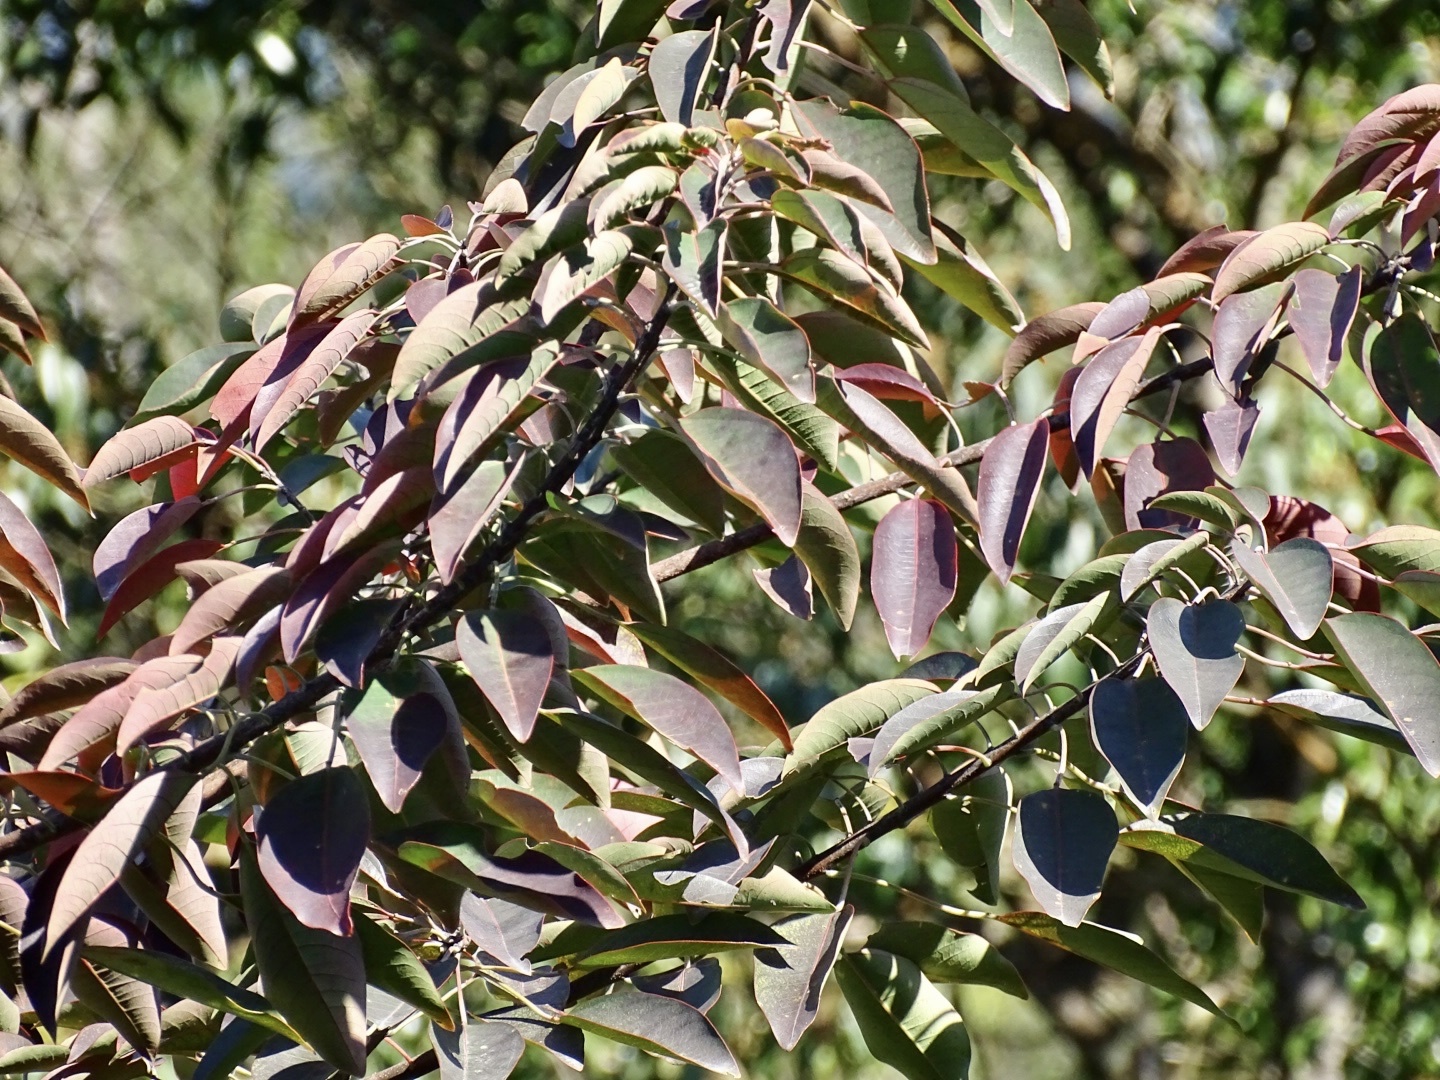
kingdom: Plantae
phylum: Tracheophyta
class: Magnoliopsida
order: Malpighiales
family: Euphorbiaceae
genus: Triadica
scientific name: Triadica cochinchinensis
